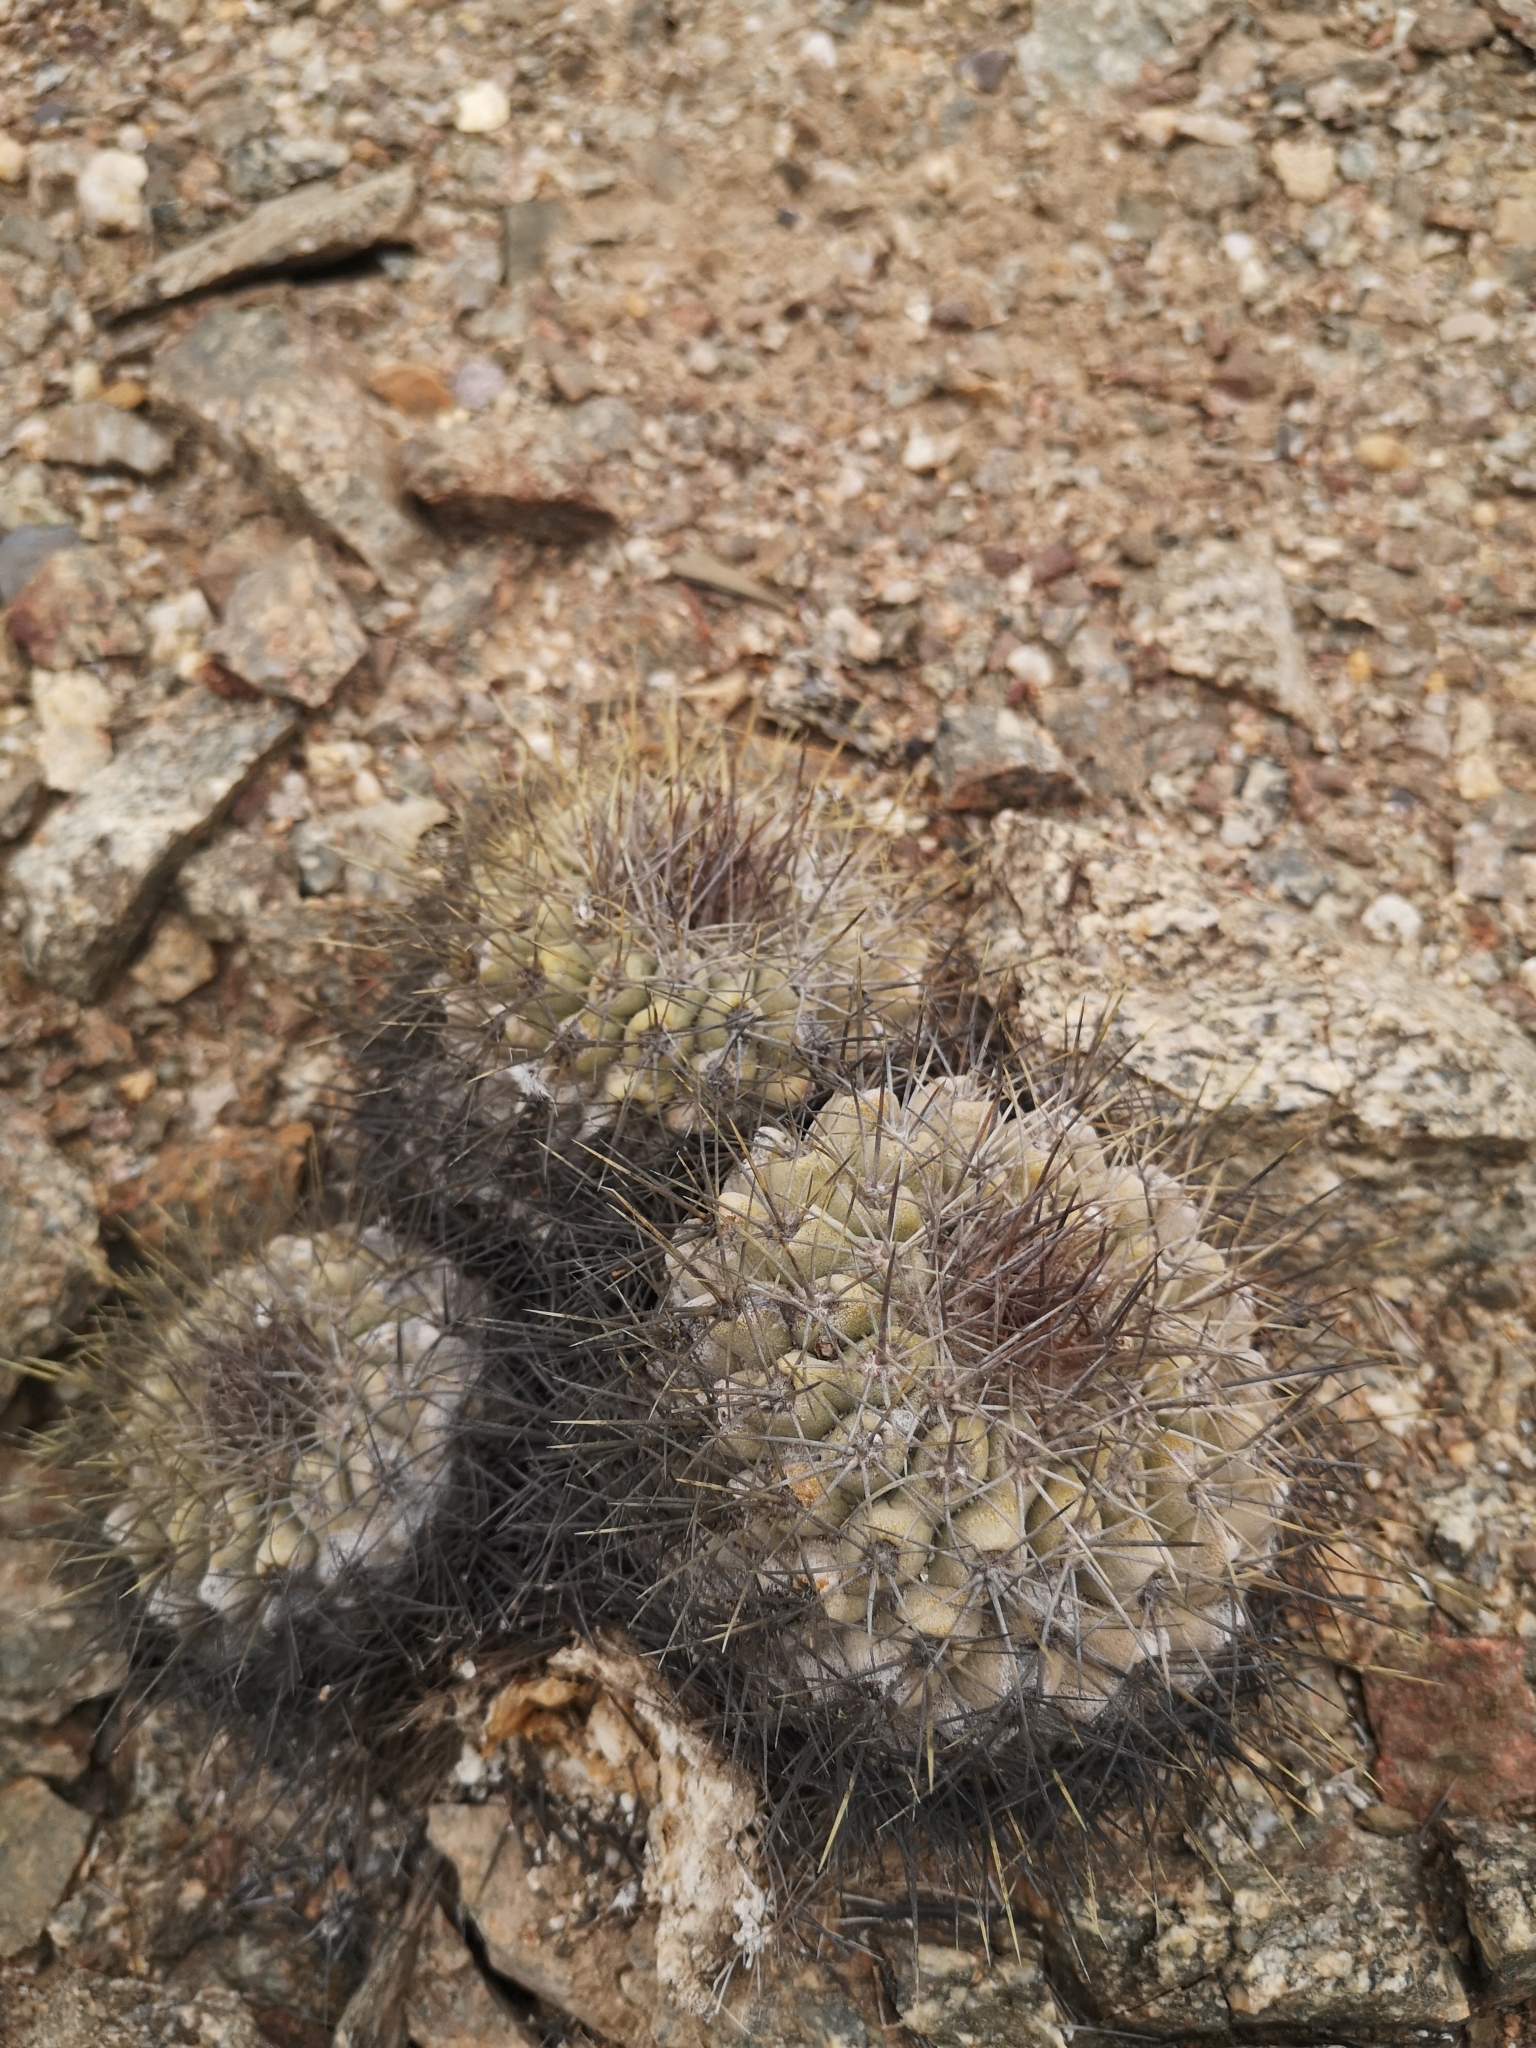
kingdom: Plantae
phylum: Tracheophyta
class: Magnoliopsida
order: Caryophyllales
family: Cactaceae
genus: Copiapoa
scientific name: Copiapoa grandiflora
